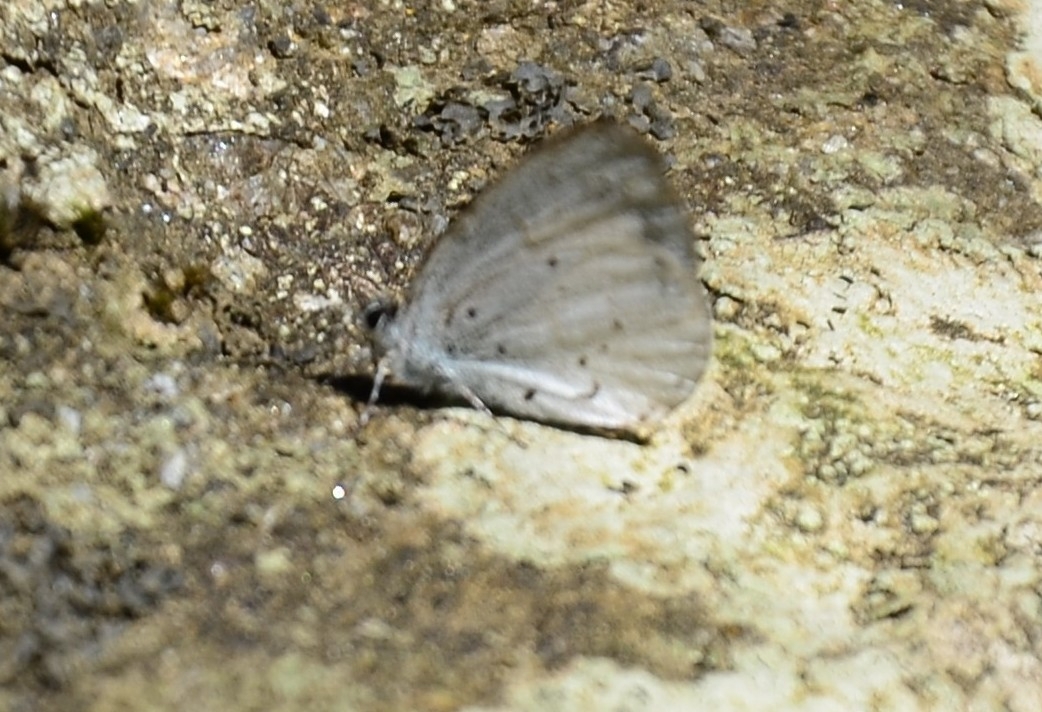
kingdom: Animalia
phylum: Arthropoda
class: Insecta
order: Lepidoptera
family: Lycaenidae
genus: Udara
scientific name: Udara akasa
